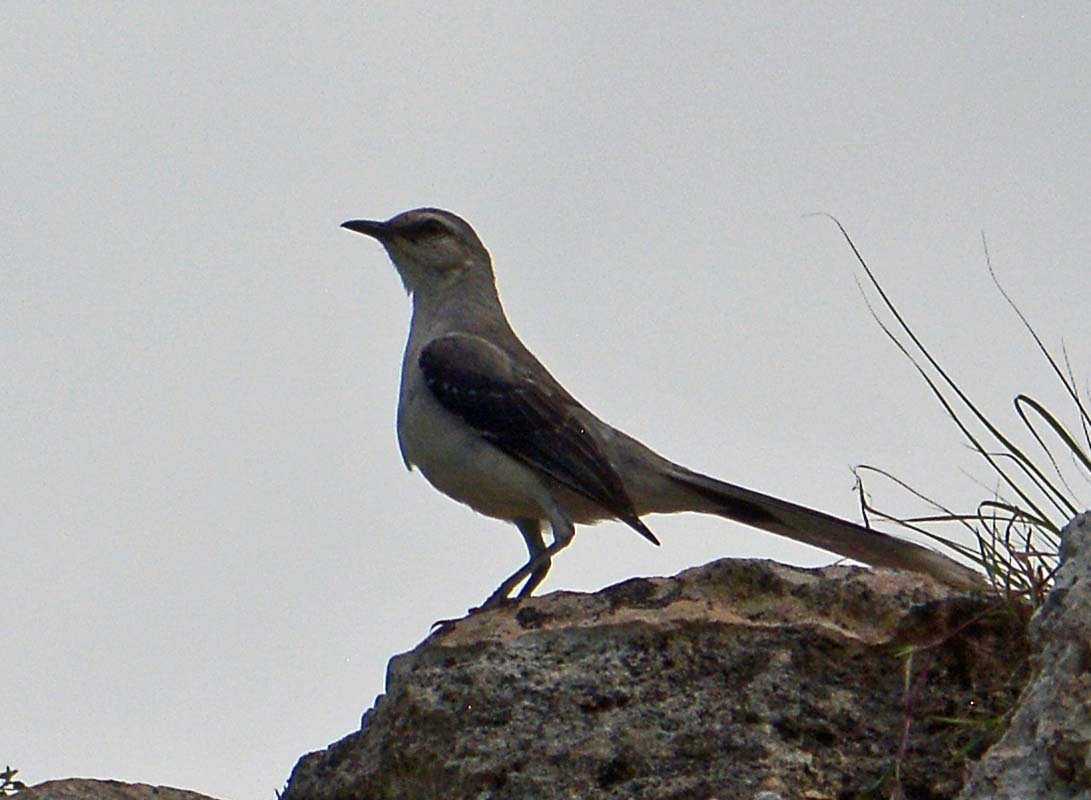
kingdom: Animalia
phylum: Chordata
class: Aves
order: Passeriformes
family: Mimidae
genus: Mimus
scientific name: Mimus gilvus
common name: Tropical mockingbird
